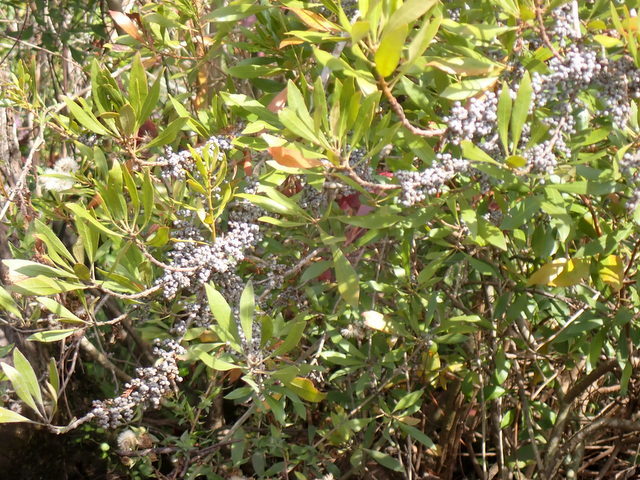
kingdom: Plantae
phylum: Tracheophyta
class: Magnoliopsida
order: Fagales
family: Myricaceae
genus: Morella
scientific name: Morella cerifera
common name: Wax myrtle
